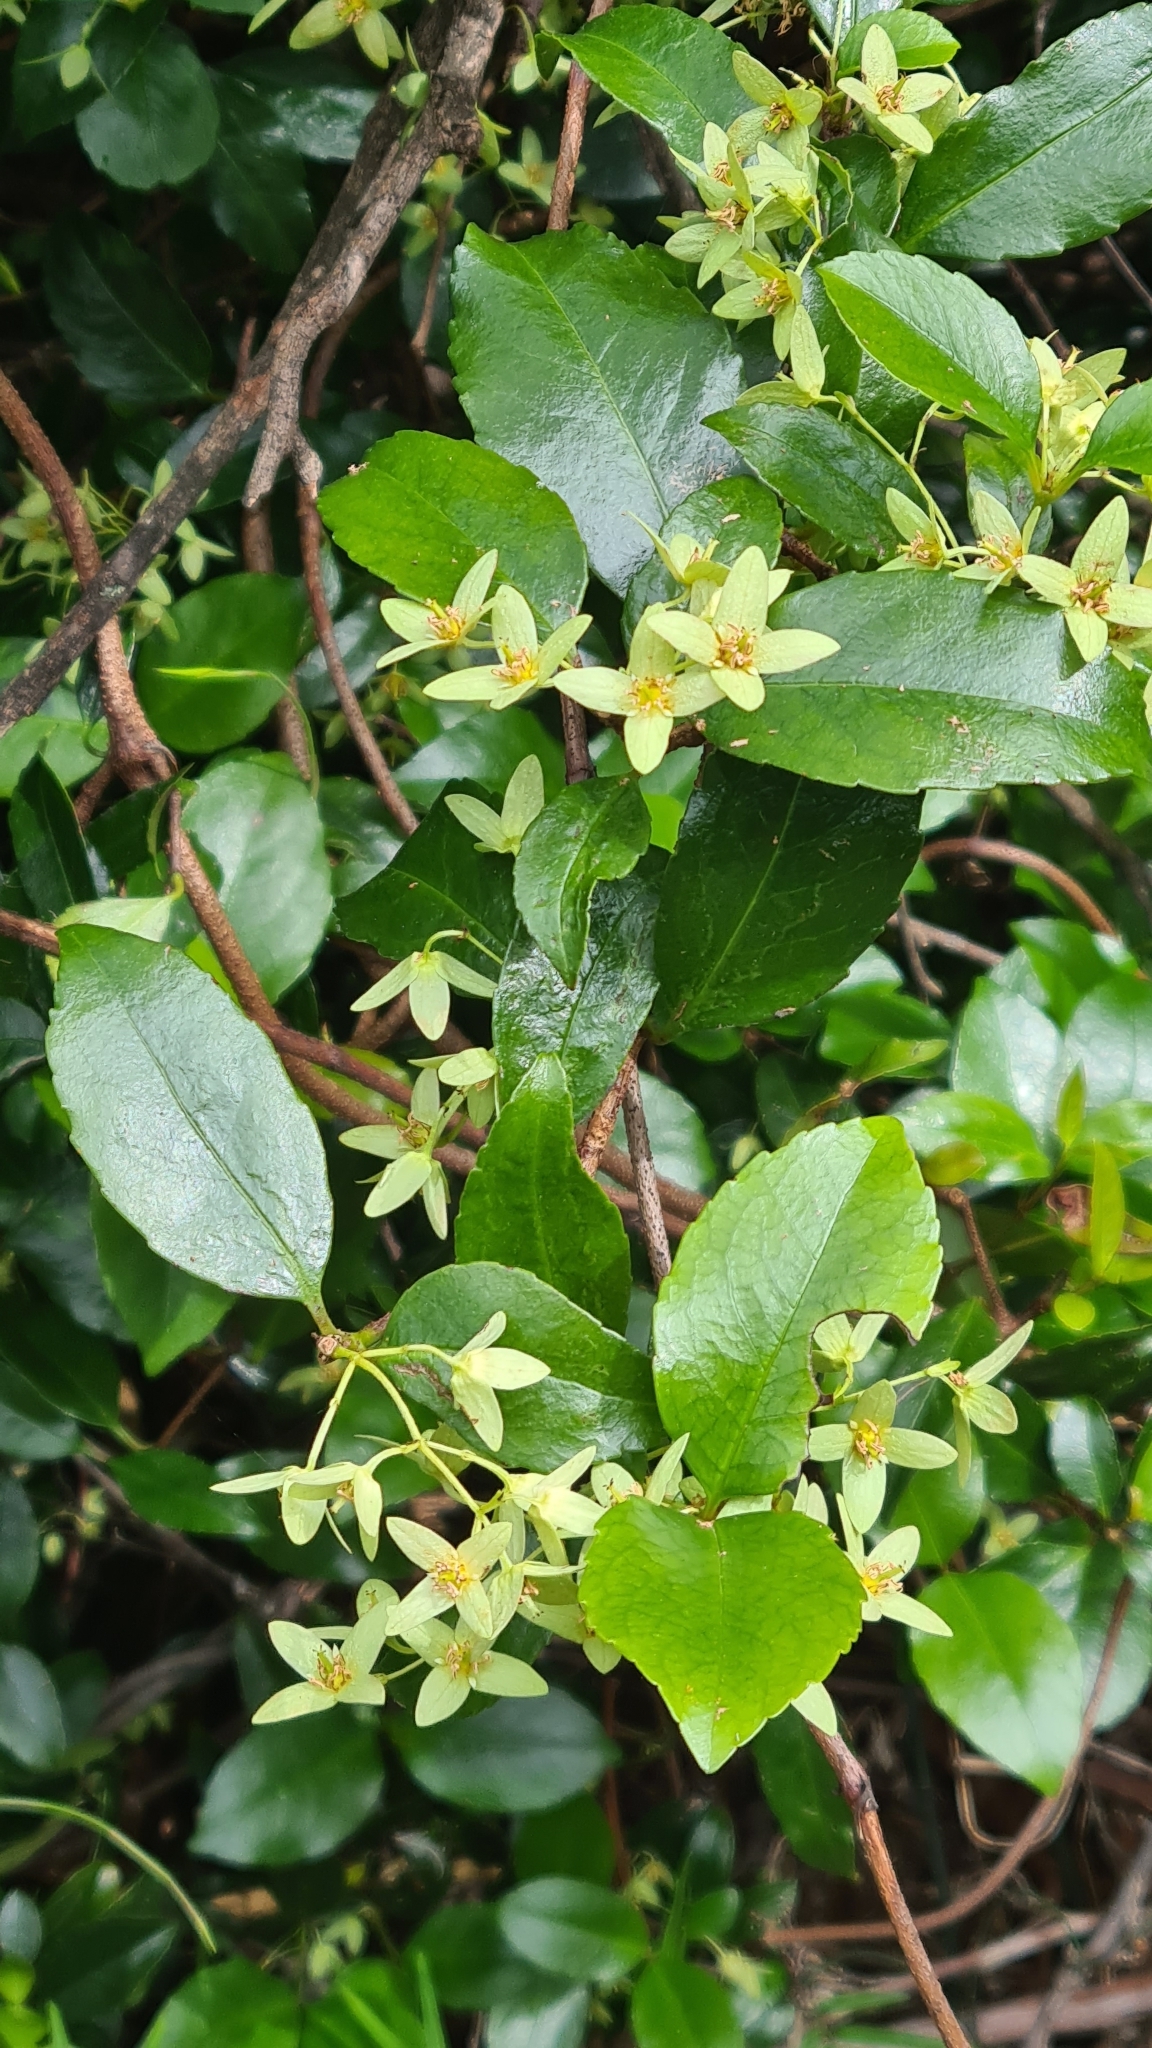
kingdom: Plantae
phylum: Tracheophyta
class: Magnoliopsida
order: Saxifragales
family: Aphanopetalaceae
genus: Aphanopetalum
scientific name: Aphanopetalum resinosum
